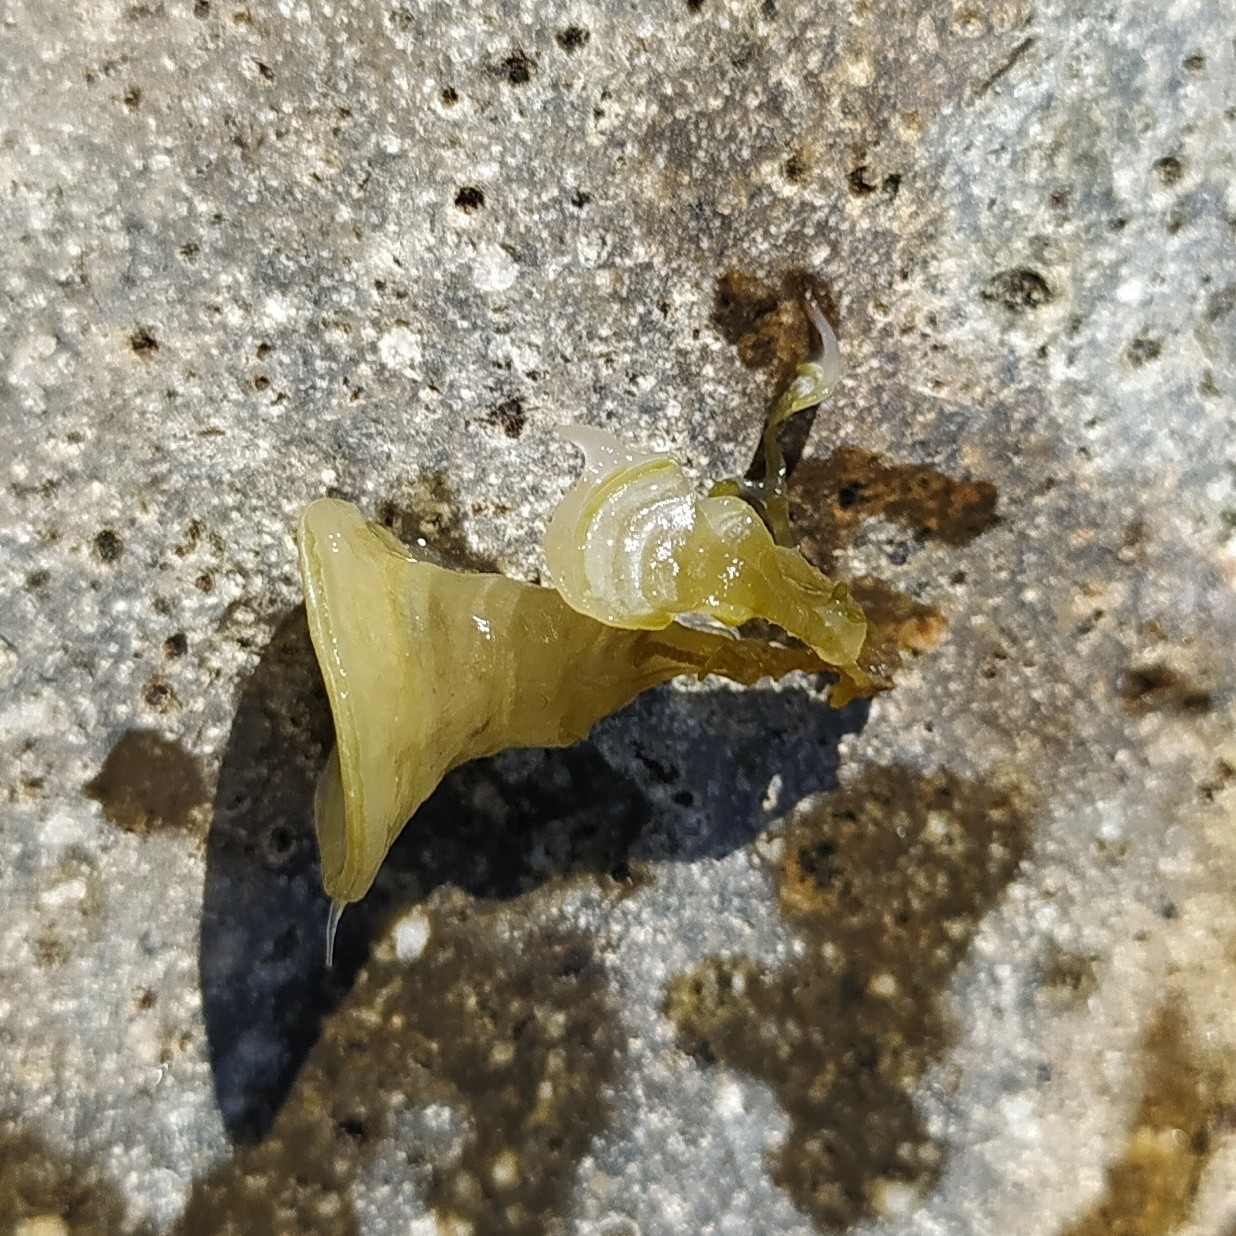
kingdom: Chromista
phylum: Ochrophyta
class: Phaeophyceae
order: Dictyotales
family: Dictyotaceae
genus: Padina
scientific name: Padina pavonica
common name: Turkey feather alga
